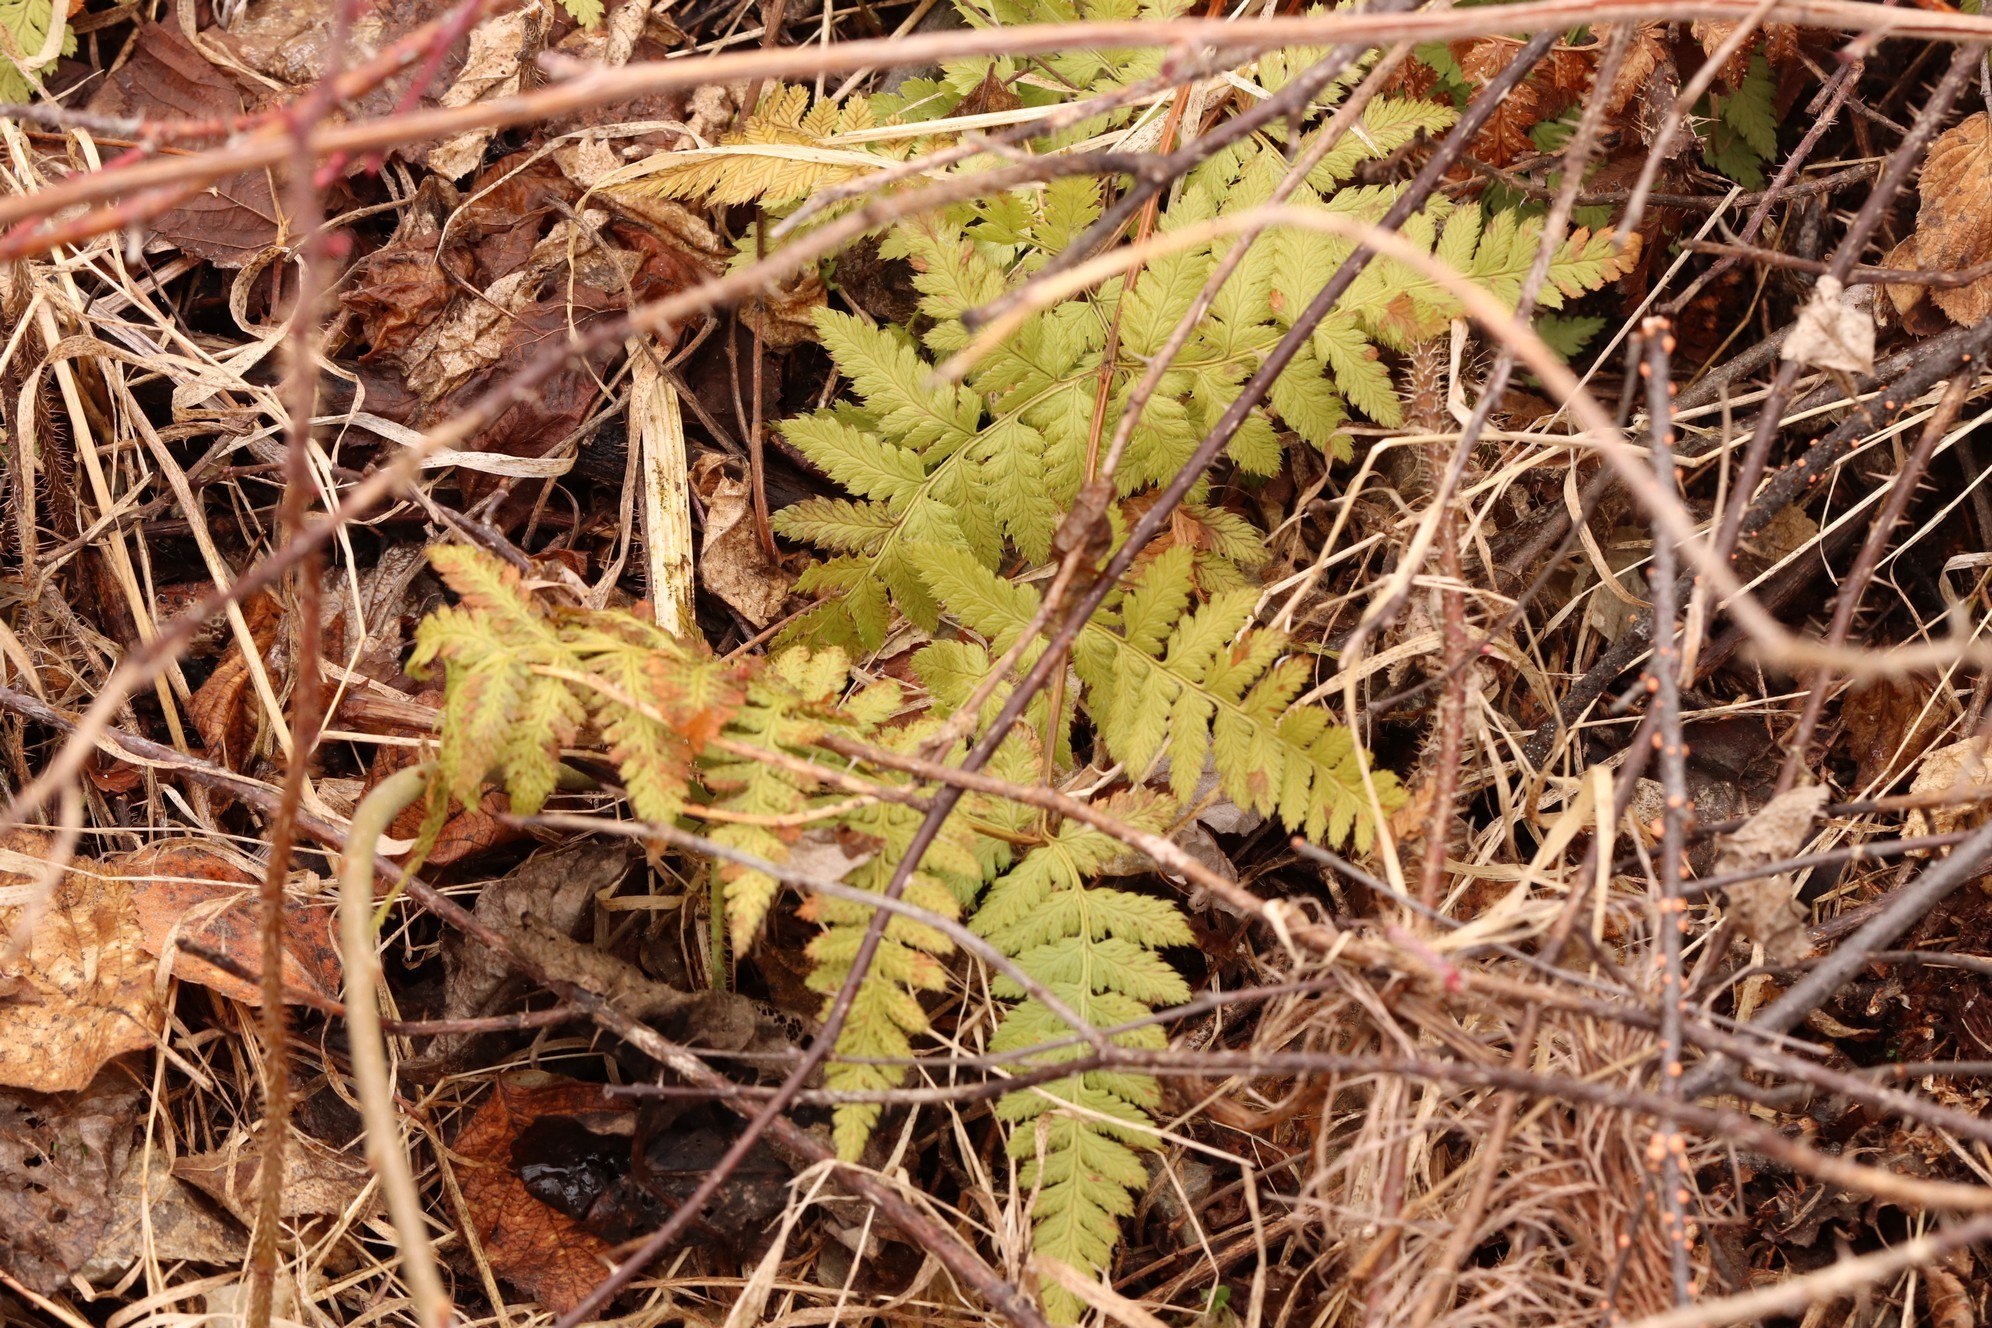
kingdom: Plantae
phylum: Tracheophyta
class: Polypodiopsida
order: Polypodiales
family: Dryopteridaceae
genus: Dryopteris
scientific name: Dryopteris carthusiana
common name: Narrow buckler-fern
